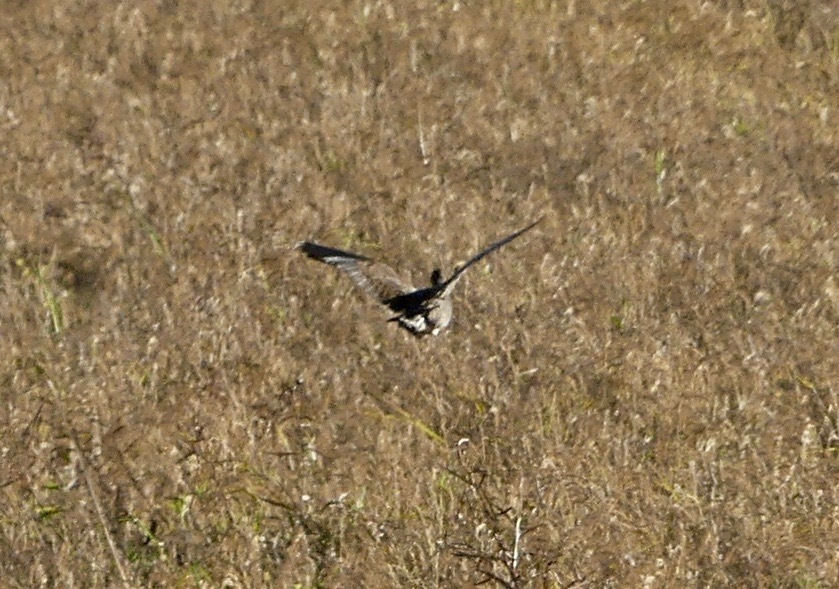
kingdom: Animalia
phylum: Chordata
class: Aves
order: Gruiformes
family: Rallidae
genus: Rallus
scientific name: Rallus elegans
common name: King rail
